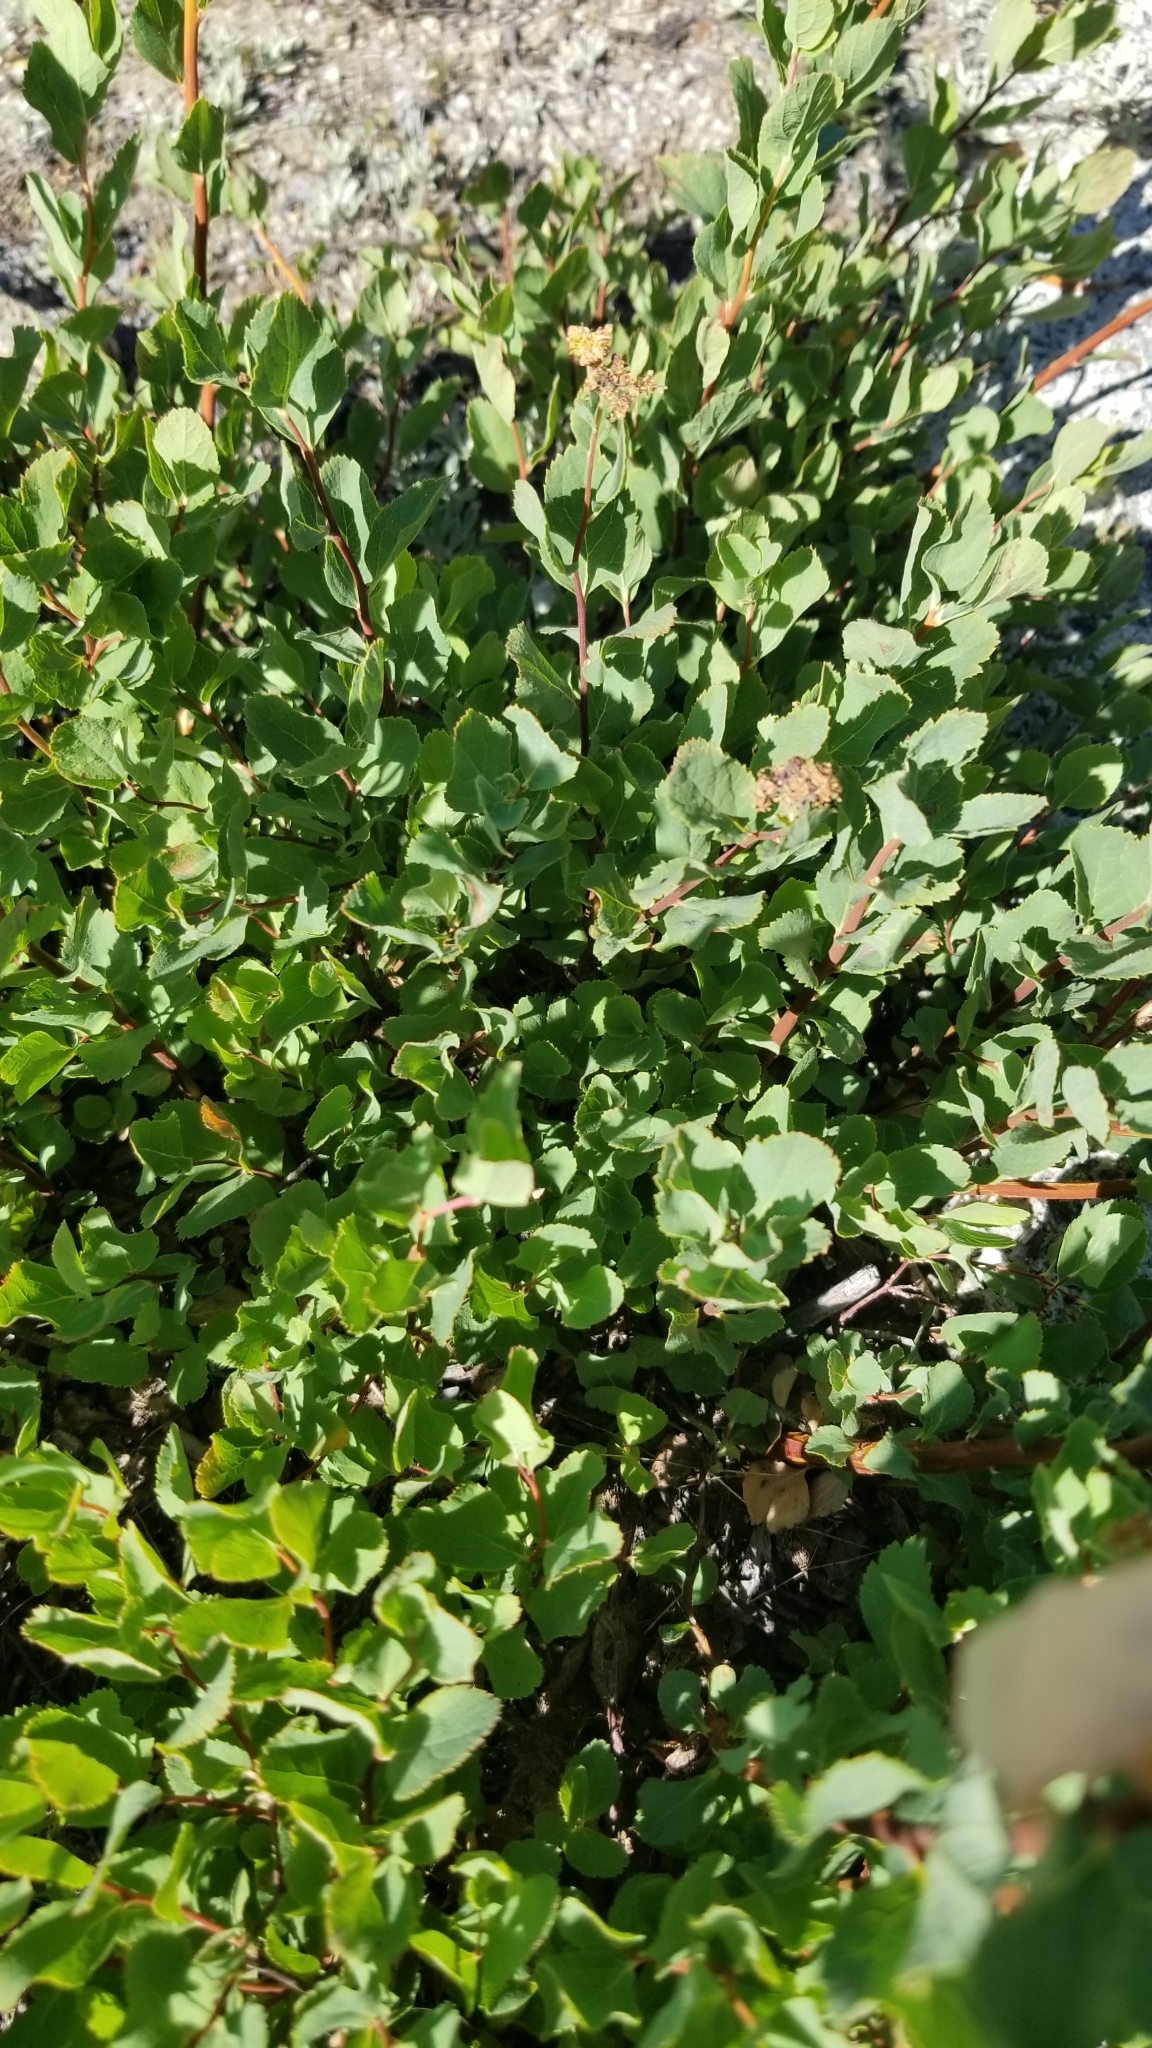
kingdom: Plantae
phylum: Tracheophyta
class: Magnoliopsida
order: Rosales
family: Rosaceae
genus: Spiraea
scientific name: Spiraea splendens
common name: Subalpine meadowsweet
